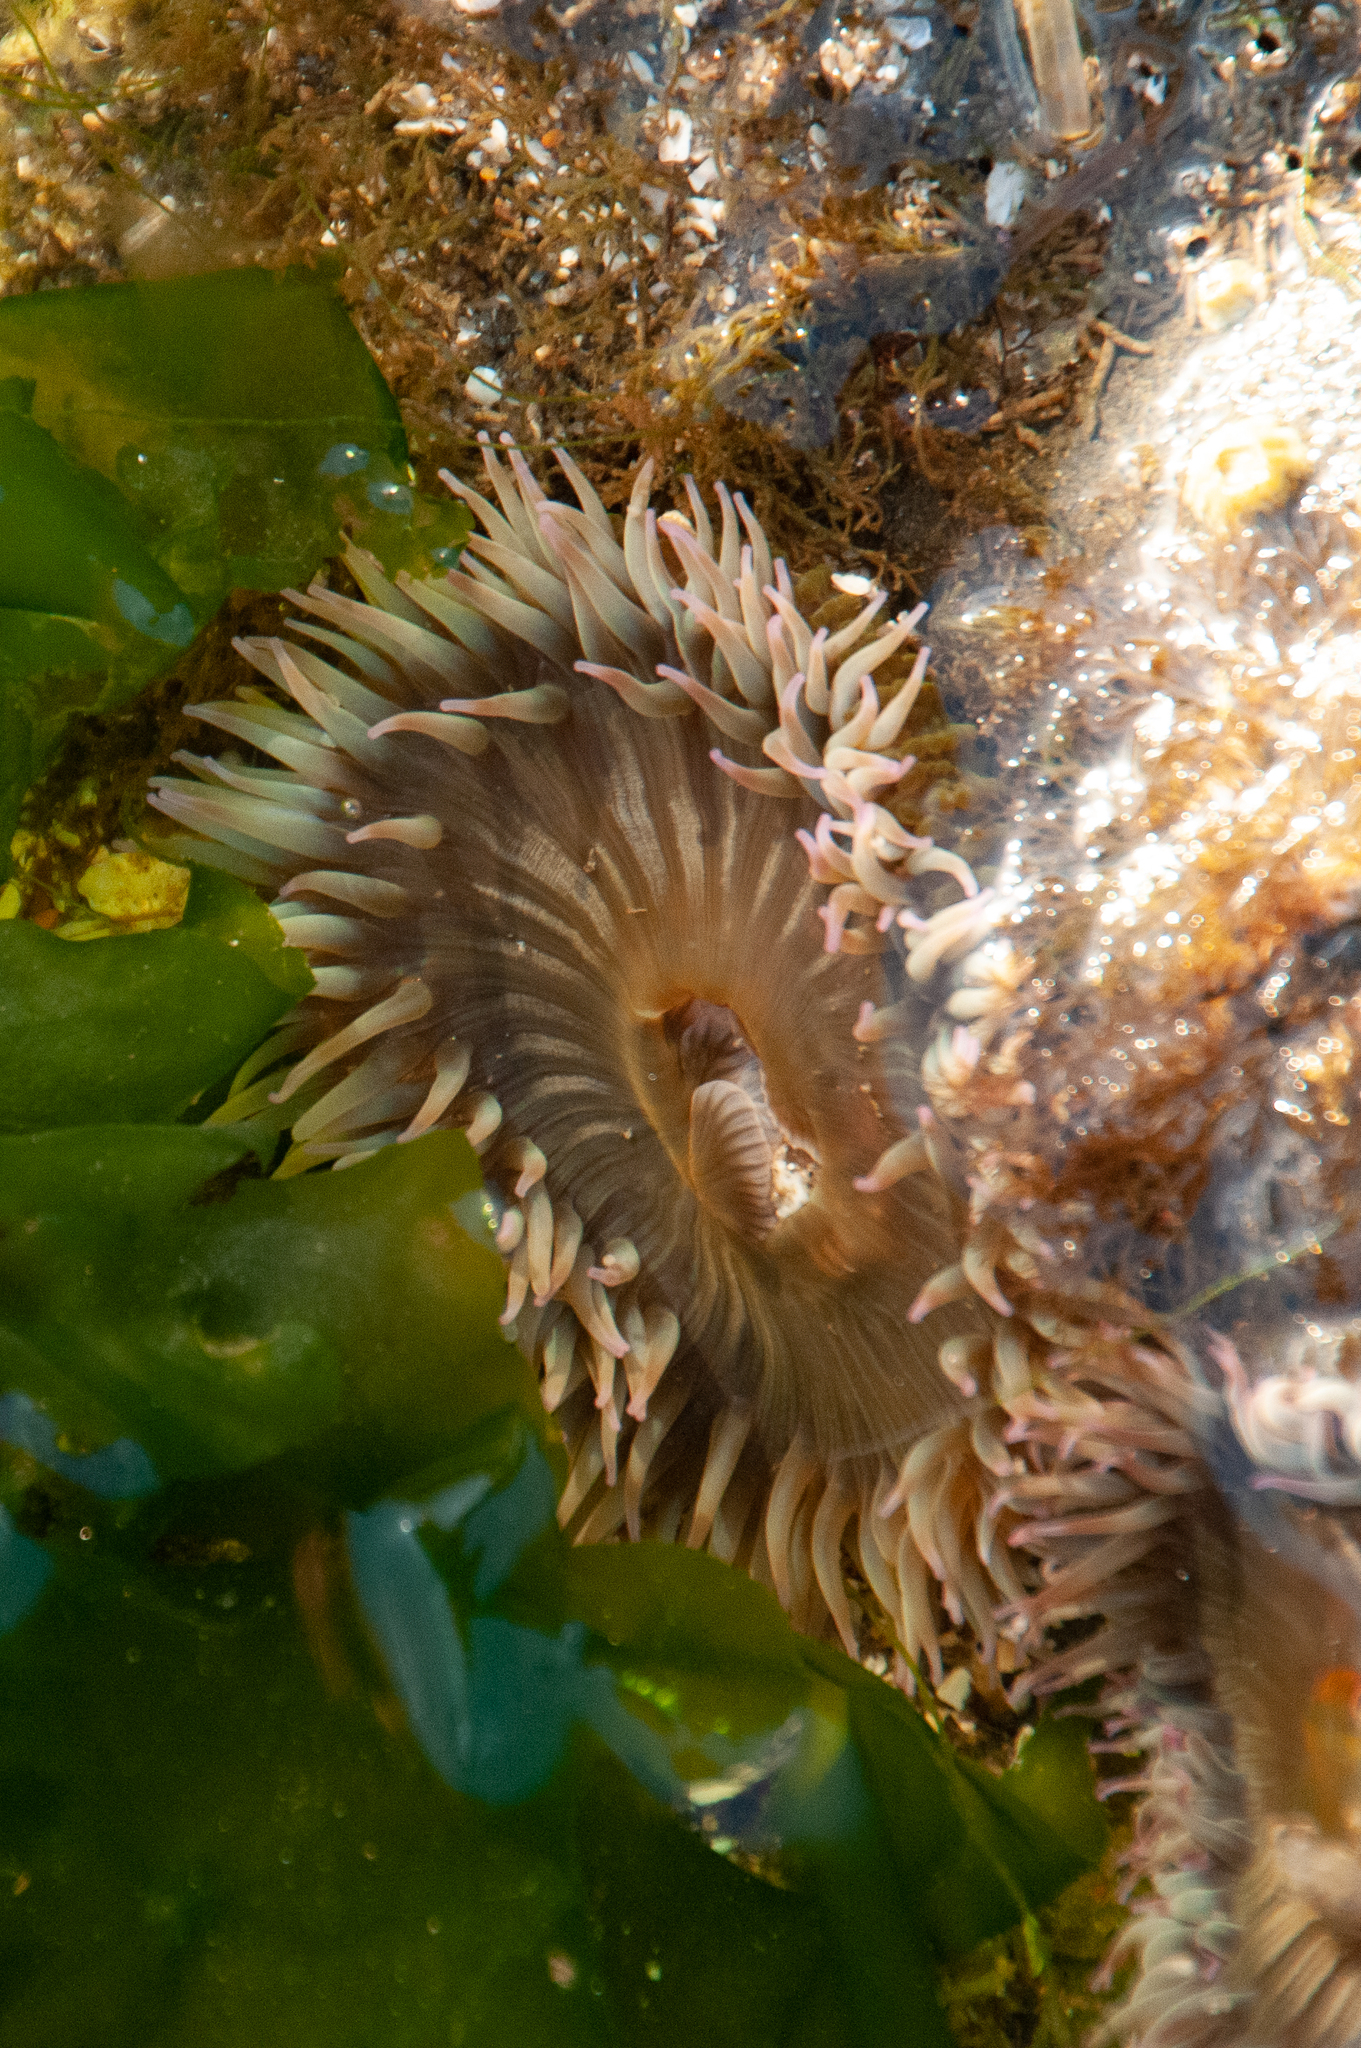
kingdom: Animalia
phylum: Cnidaria
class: Anthozoa
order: Actiniaria
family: Actiniidae
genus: Anthopleura
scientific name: Anthopleura elegantissima
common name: Clonal anemone
